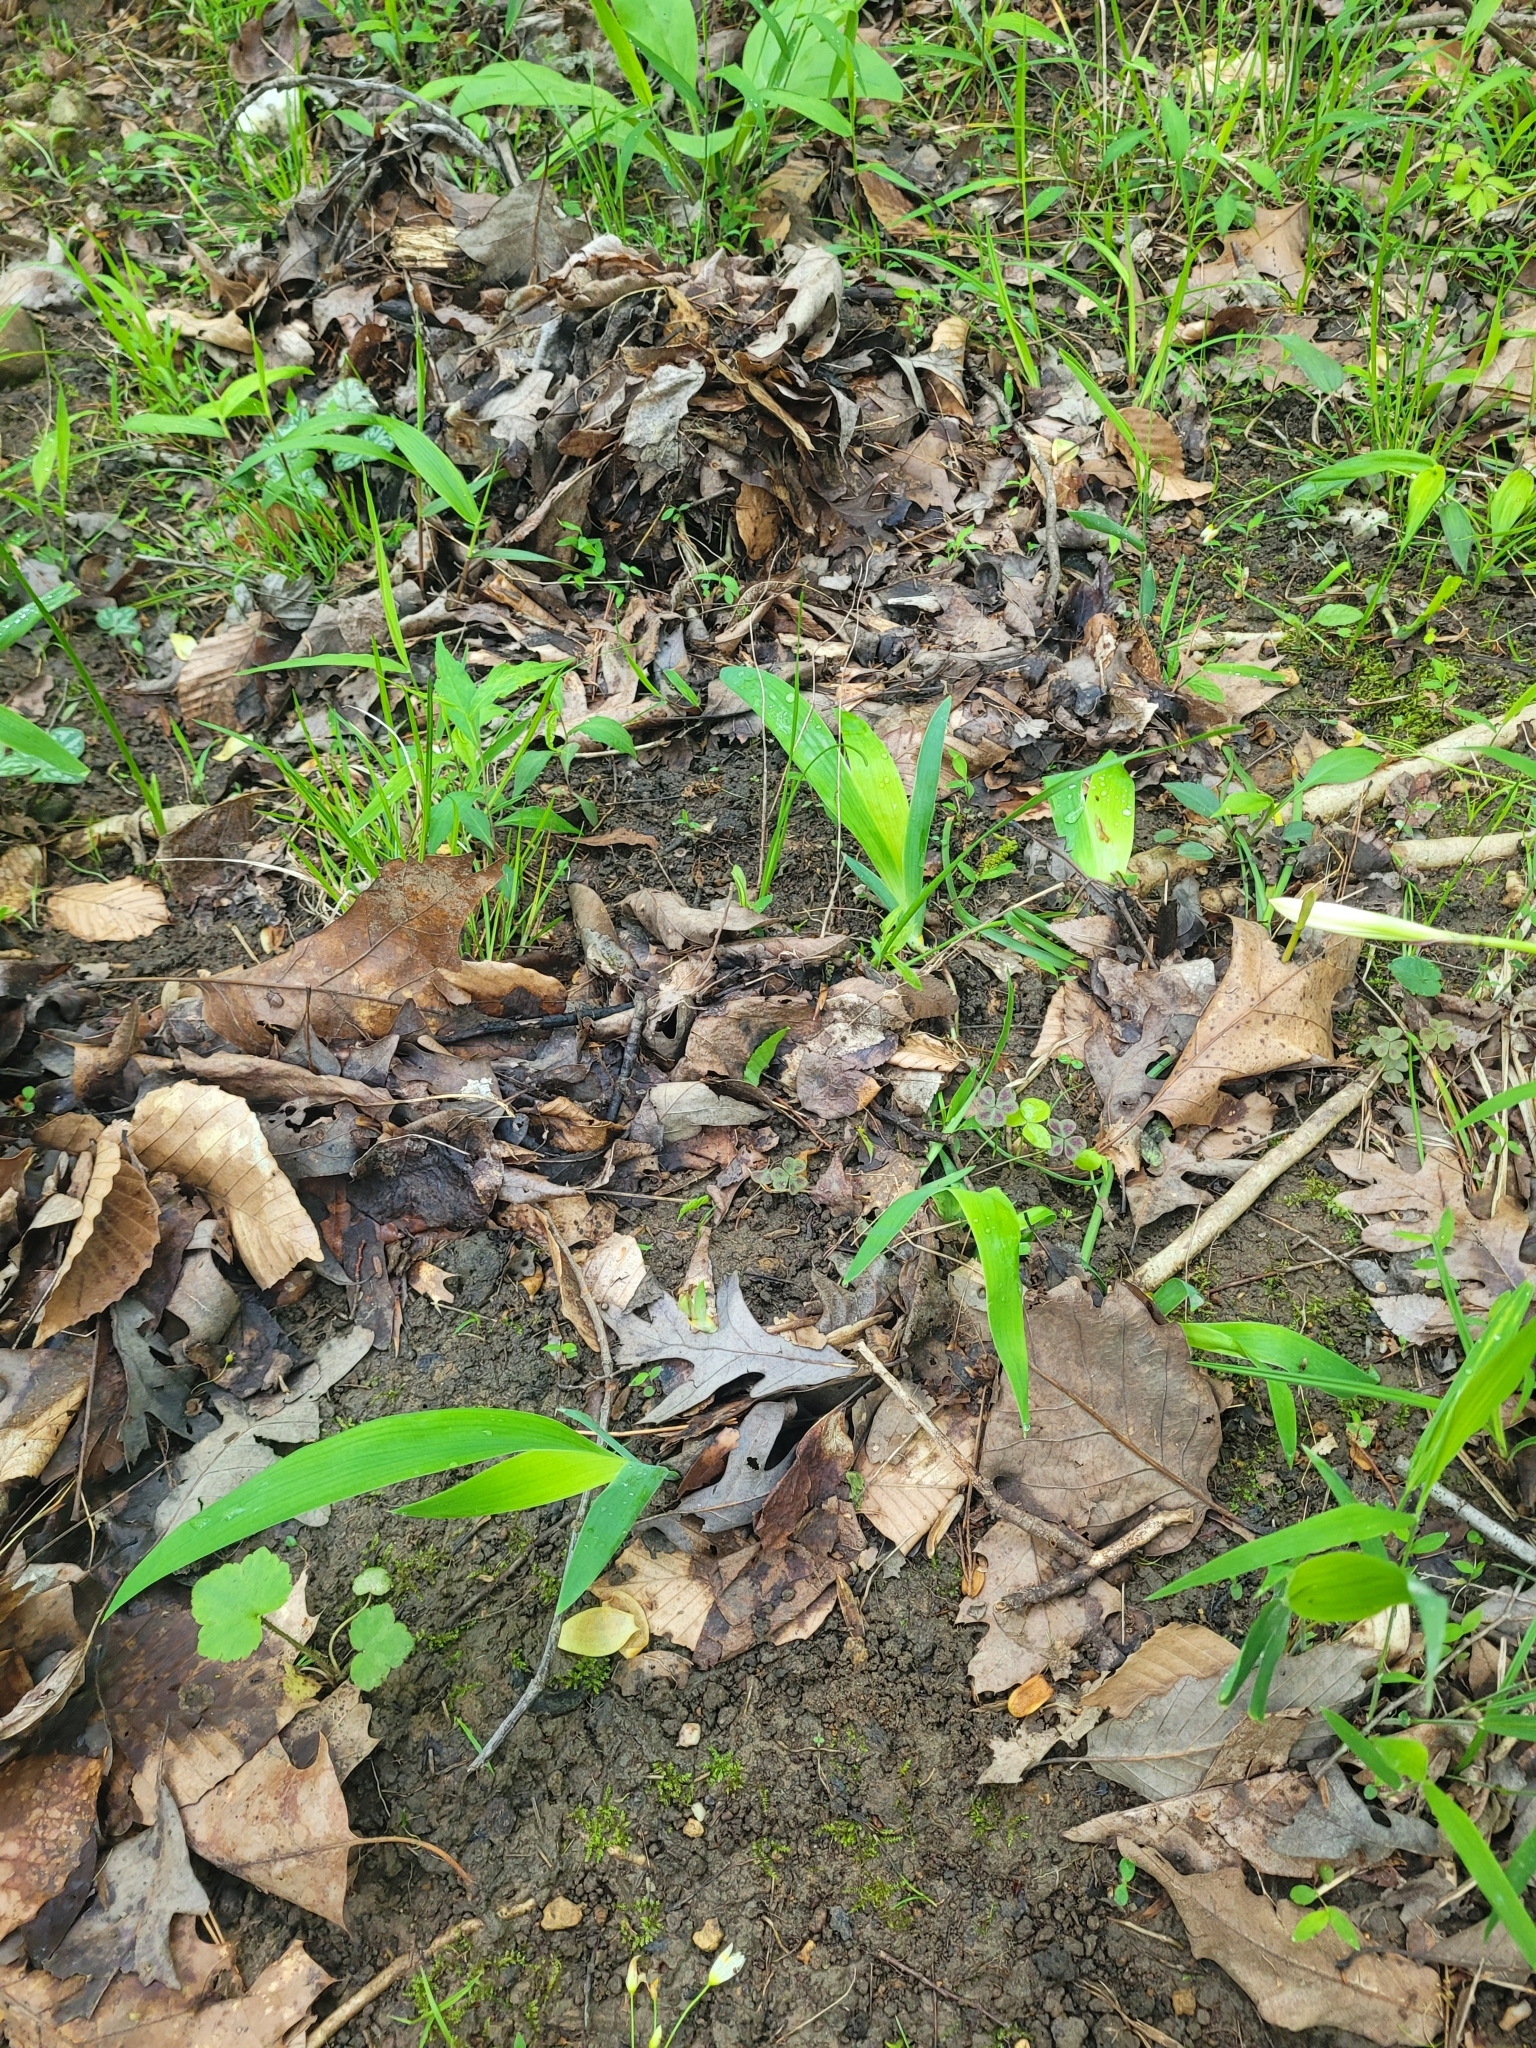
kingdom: Plantae
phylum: Tracheophyta
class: Liliopsida
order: Asparagales
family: Iridaceae
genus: Iris
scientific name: Iris cristata
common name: Crested iris
